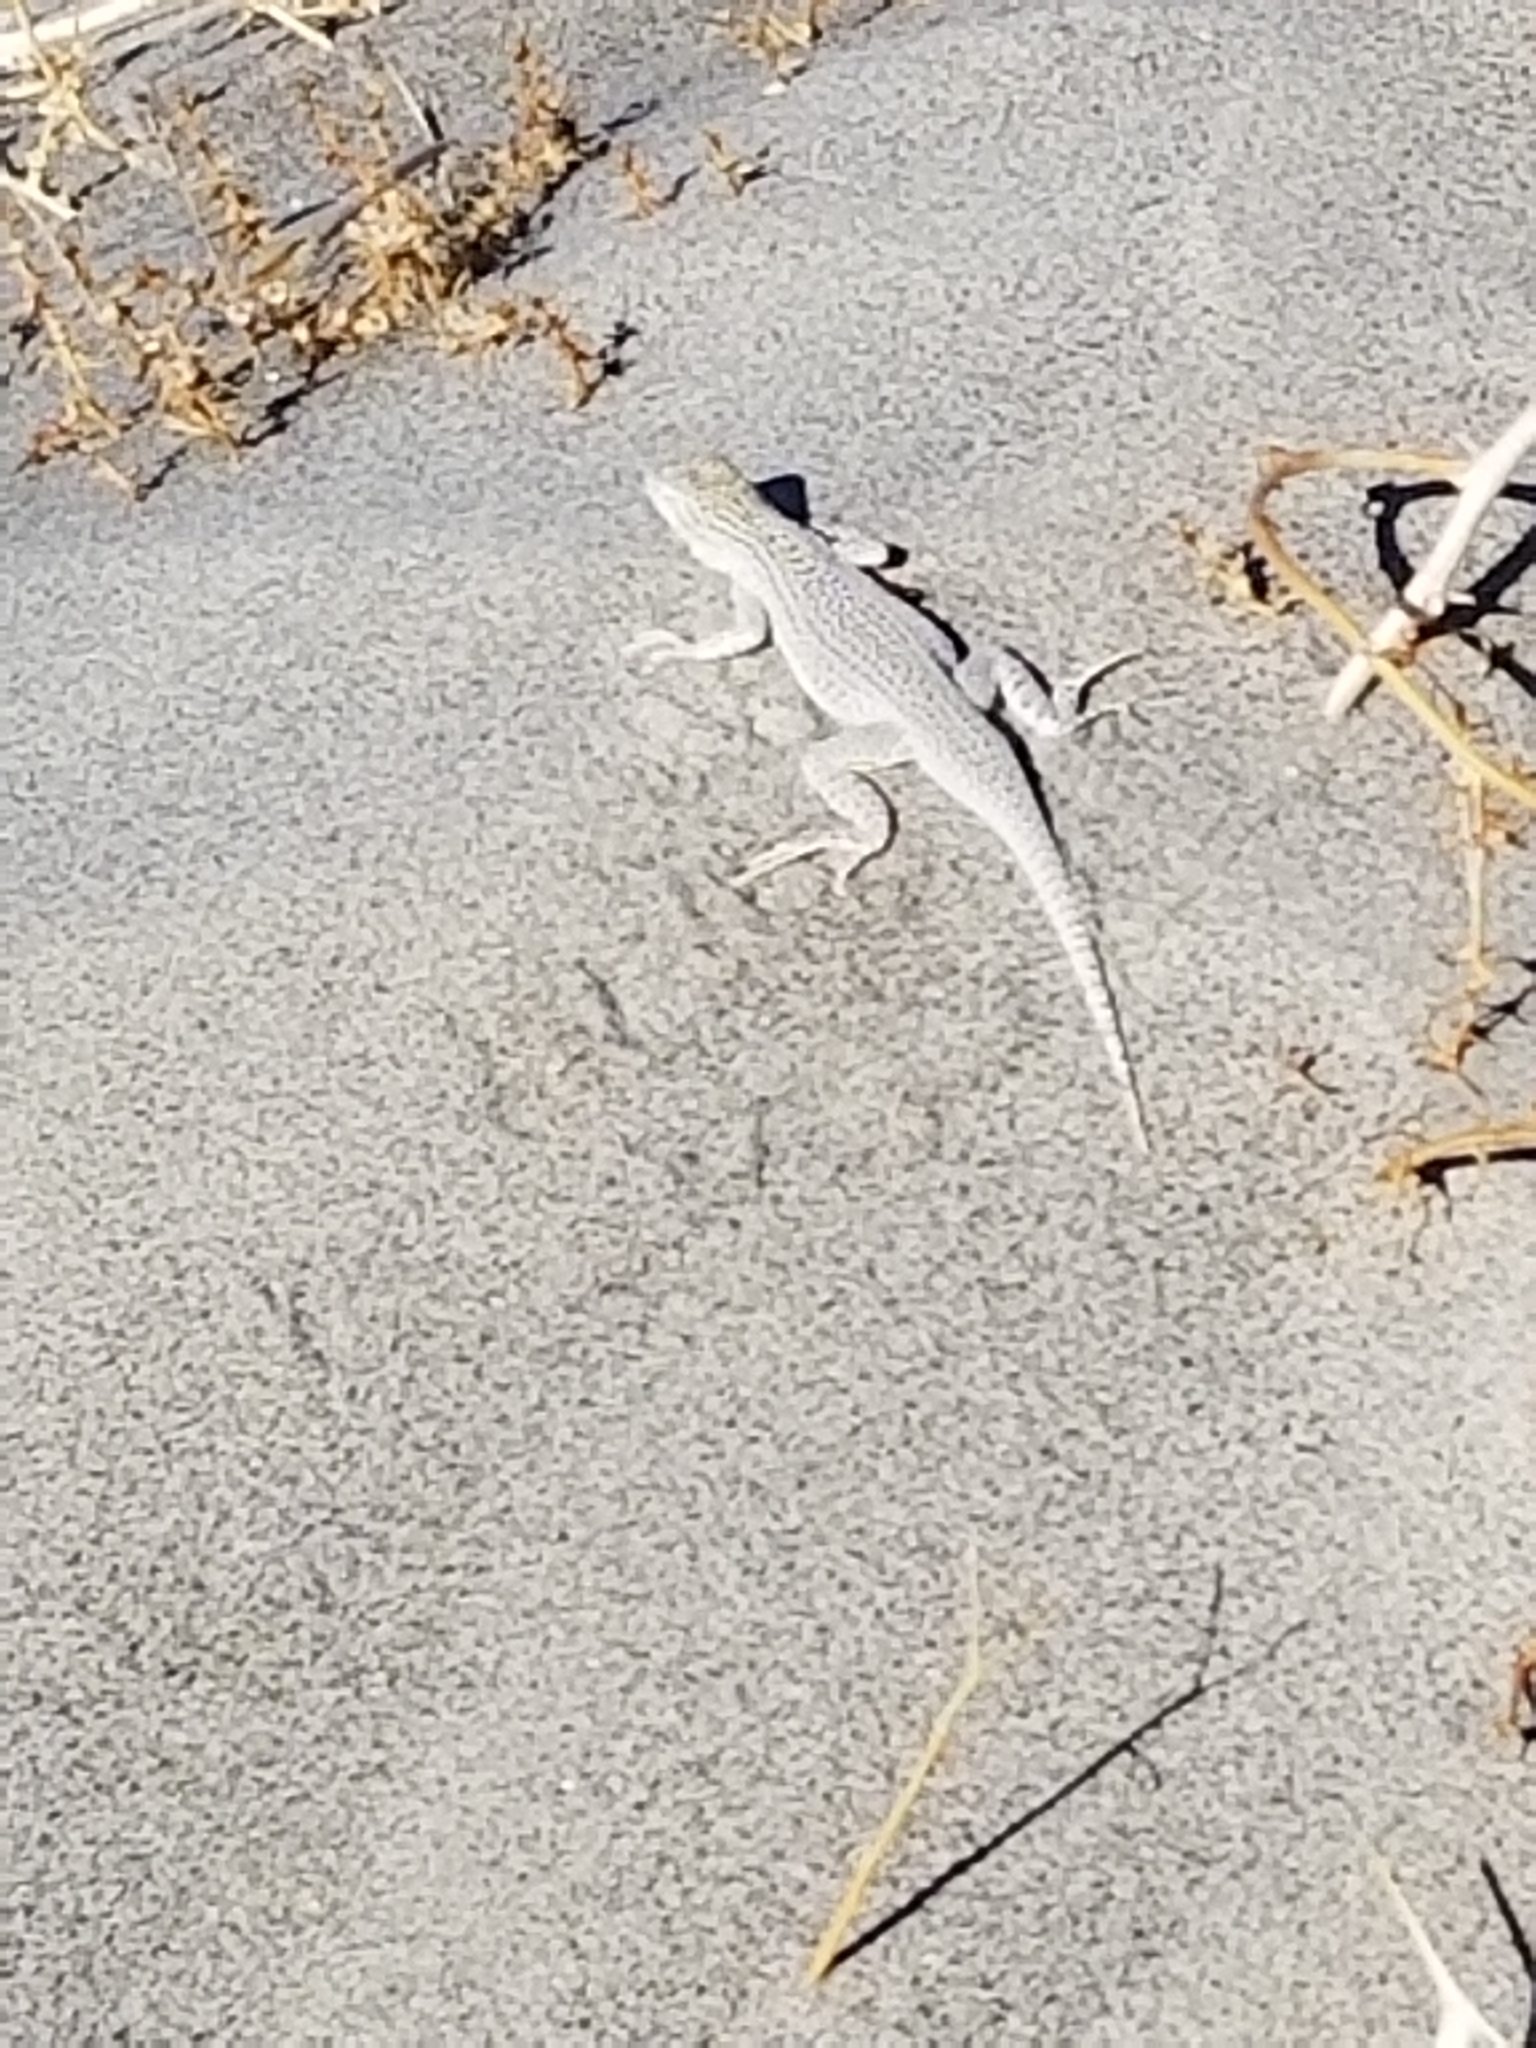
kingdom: Animalia
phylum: Chordata
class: Squamata
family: Phrynosomatidae
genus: Uma
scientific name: Uma inornata
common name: Coachella valley fringe-toed lizard
